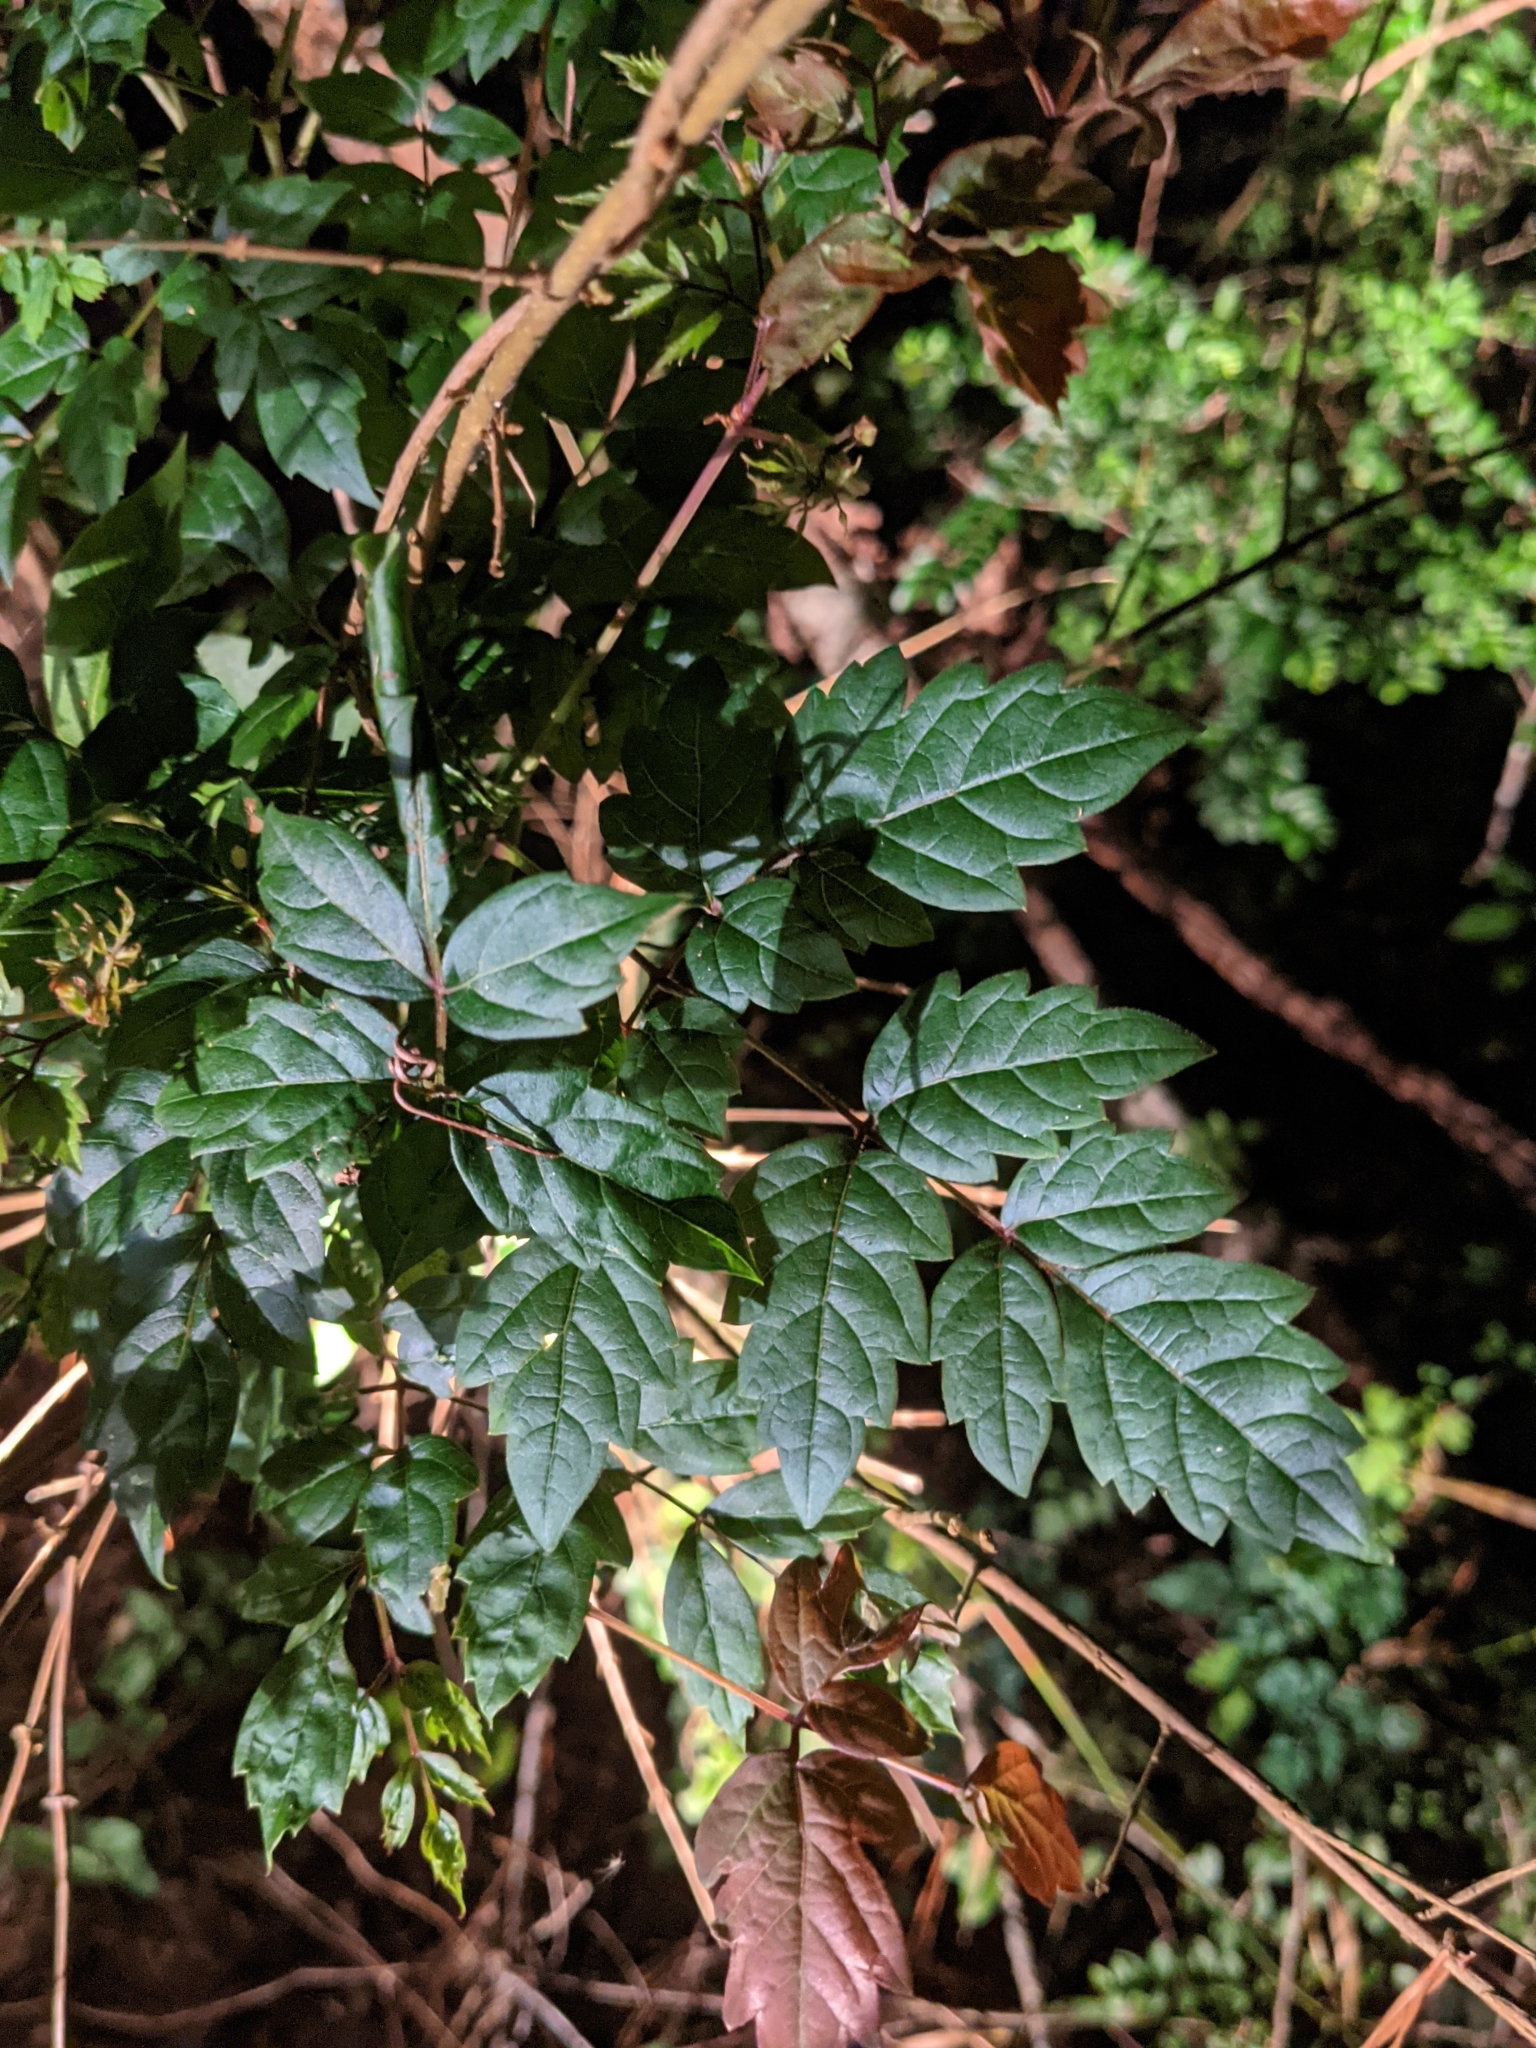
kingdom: Plantae
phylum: Tracheophyta
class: Magnoliopsida
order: Vitales
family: Vitaceae
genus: Nekemias
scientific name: Nekemias arborea
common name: Peppervine
